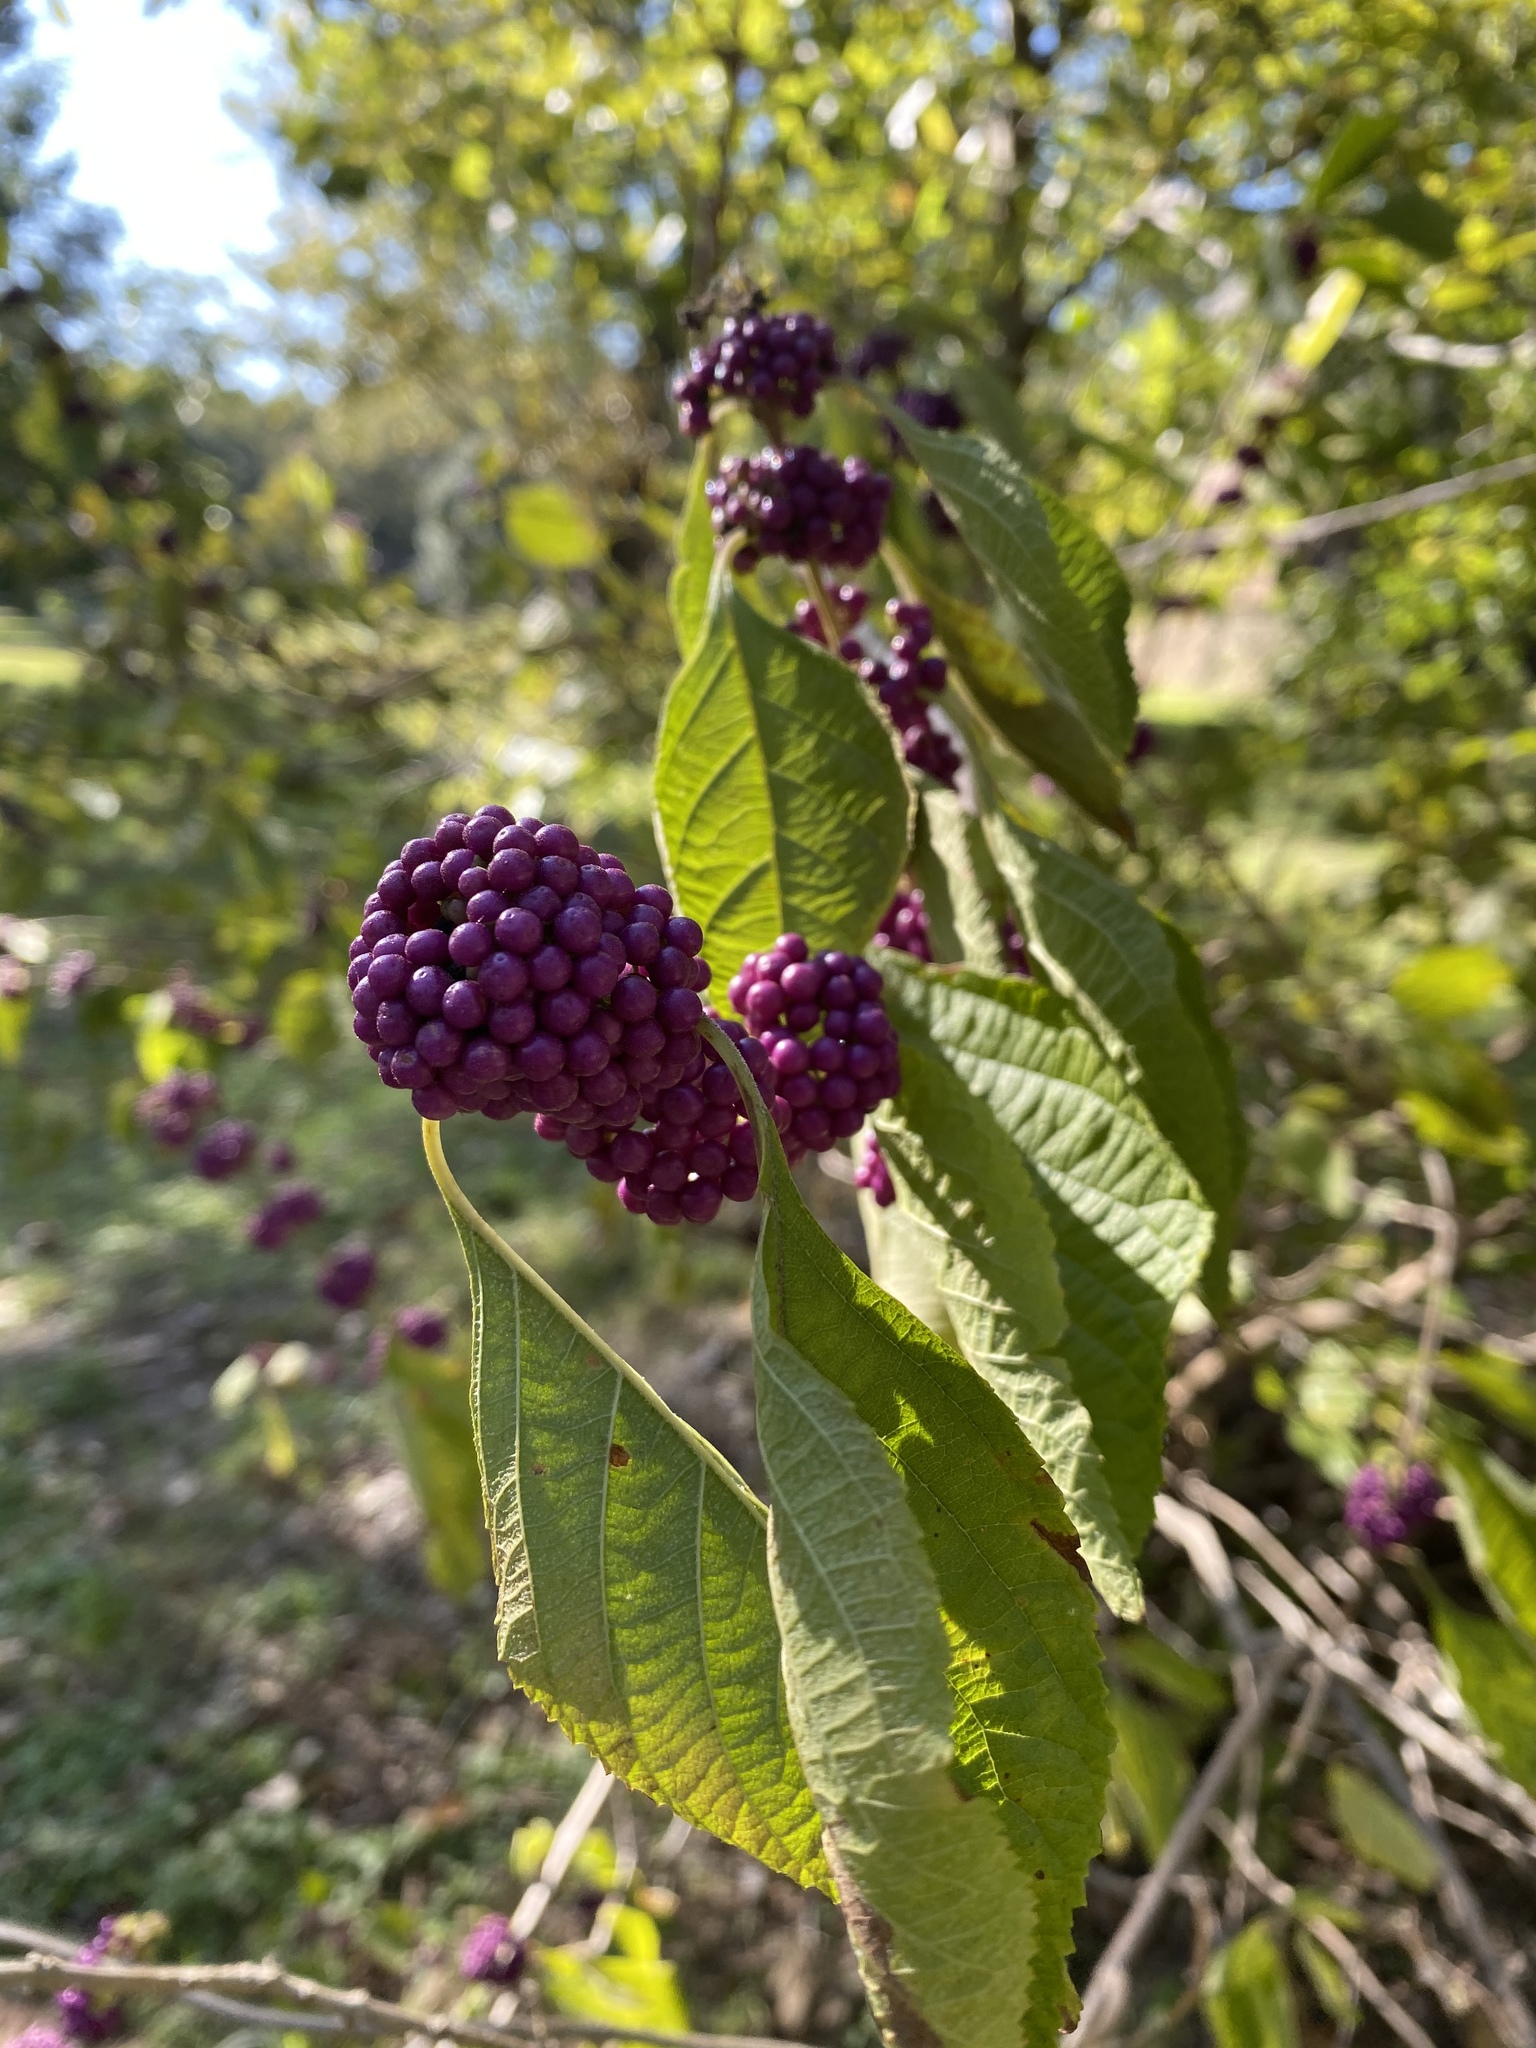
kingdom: Plantae
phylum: Tracheophyta
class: Magnoliopsida
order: Lamiales
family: Lamiaceae
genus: Callicarpa
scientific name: Callicarpa americana
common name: American beautyberry
